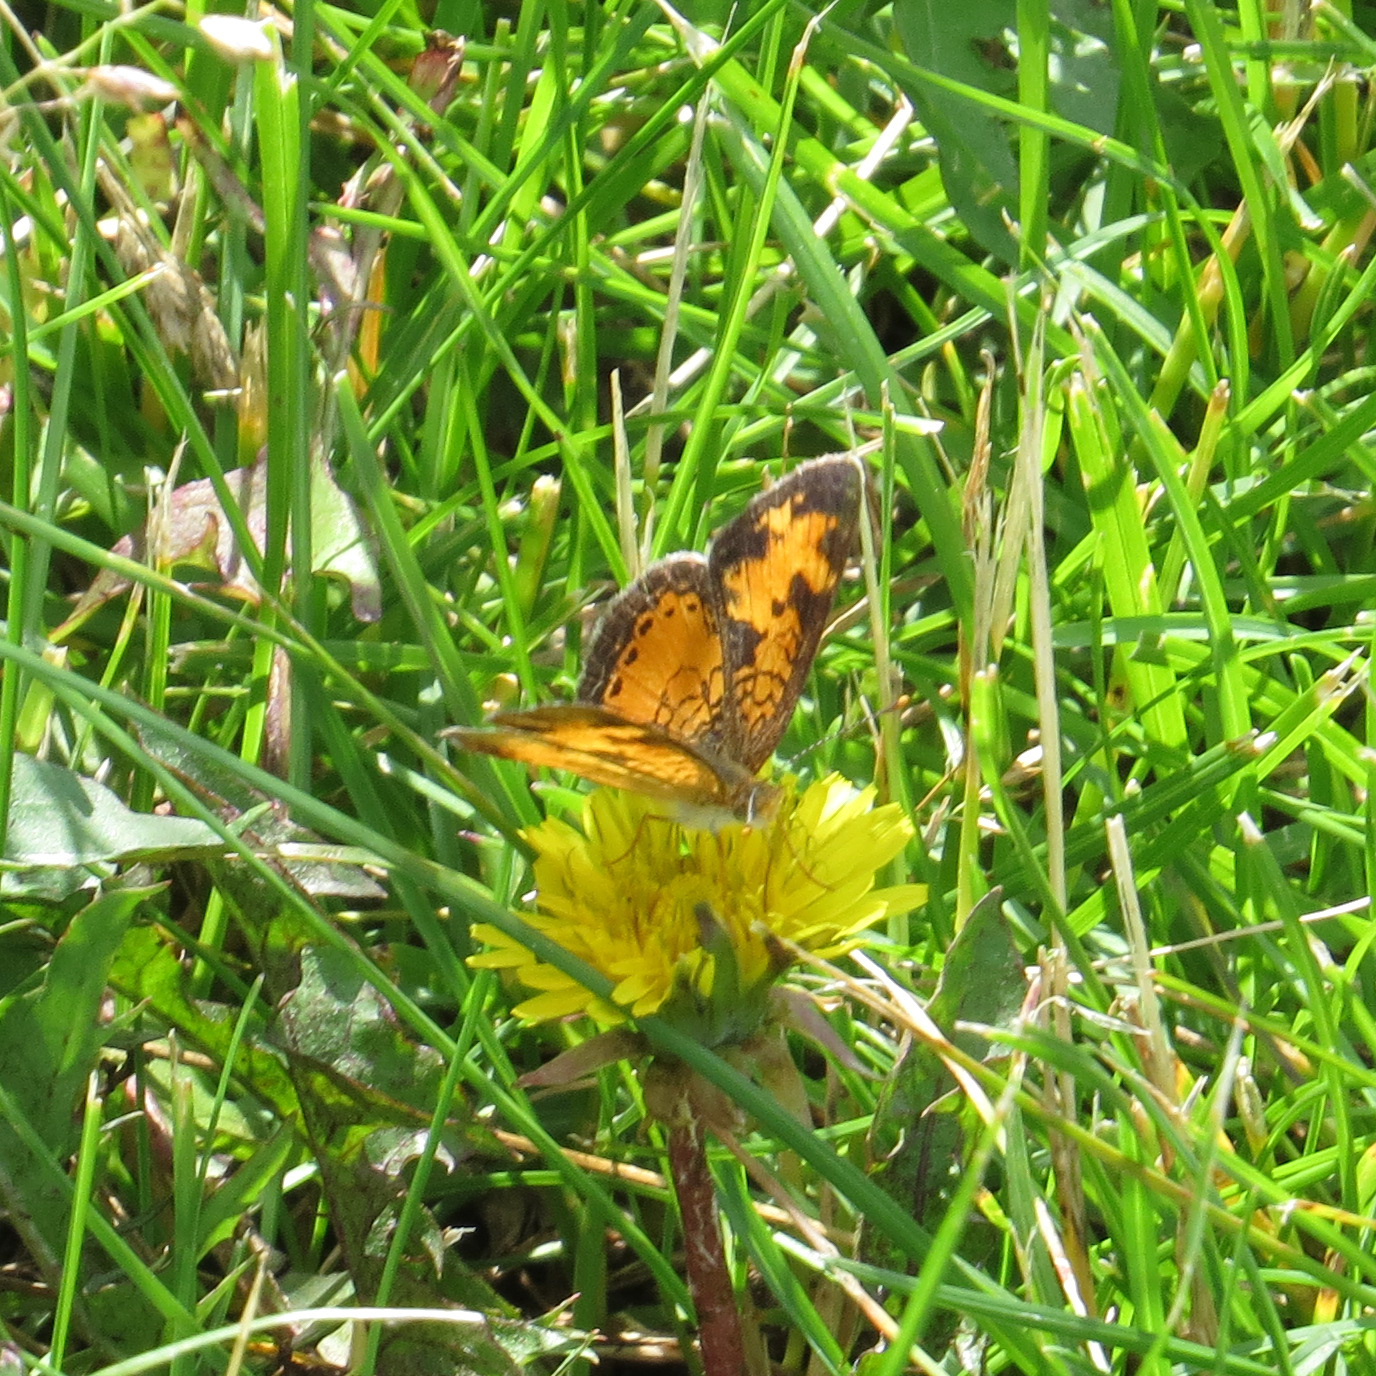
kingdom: Animalia
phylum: Arthropoda
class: Insecta
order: Lepidoptera
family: Nymphalidae
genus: Phyciodes
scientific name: Phyciodes tharos
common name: Pearl crescent
